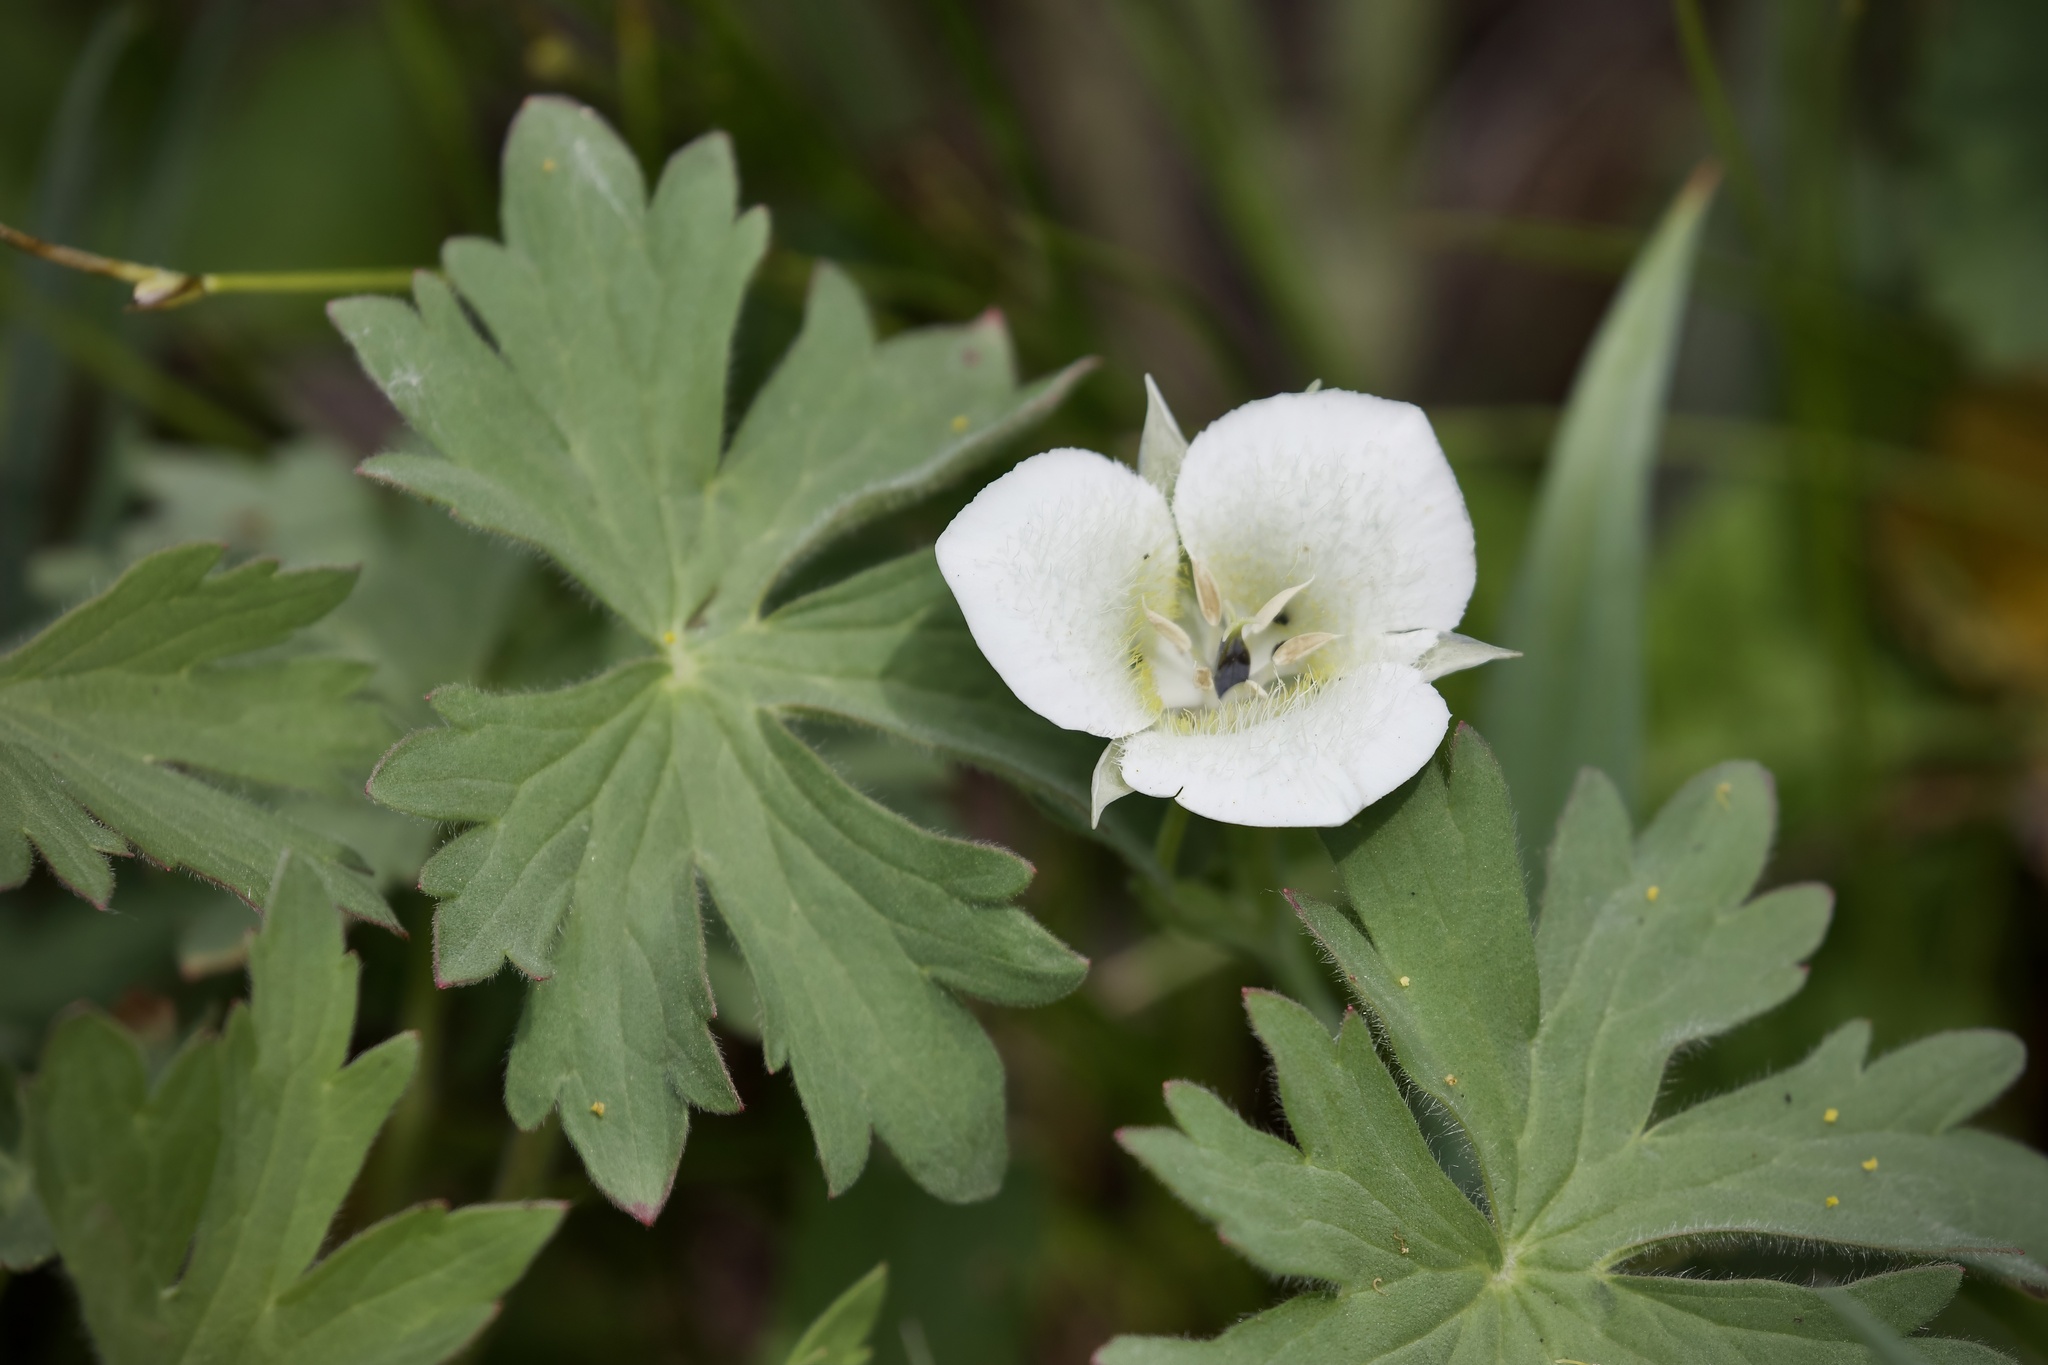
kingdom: Plantae
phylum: Tracheophyta
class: Liliopsida
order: Liliales
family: Liliaceae
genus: Calochortus
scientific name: Calochortus apiculatus
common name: Baker's mariposa lily
